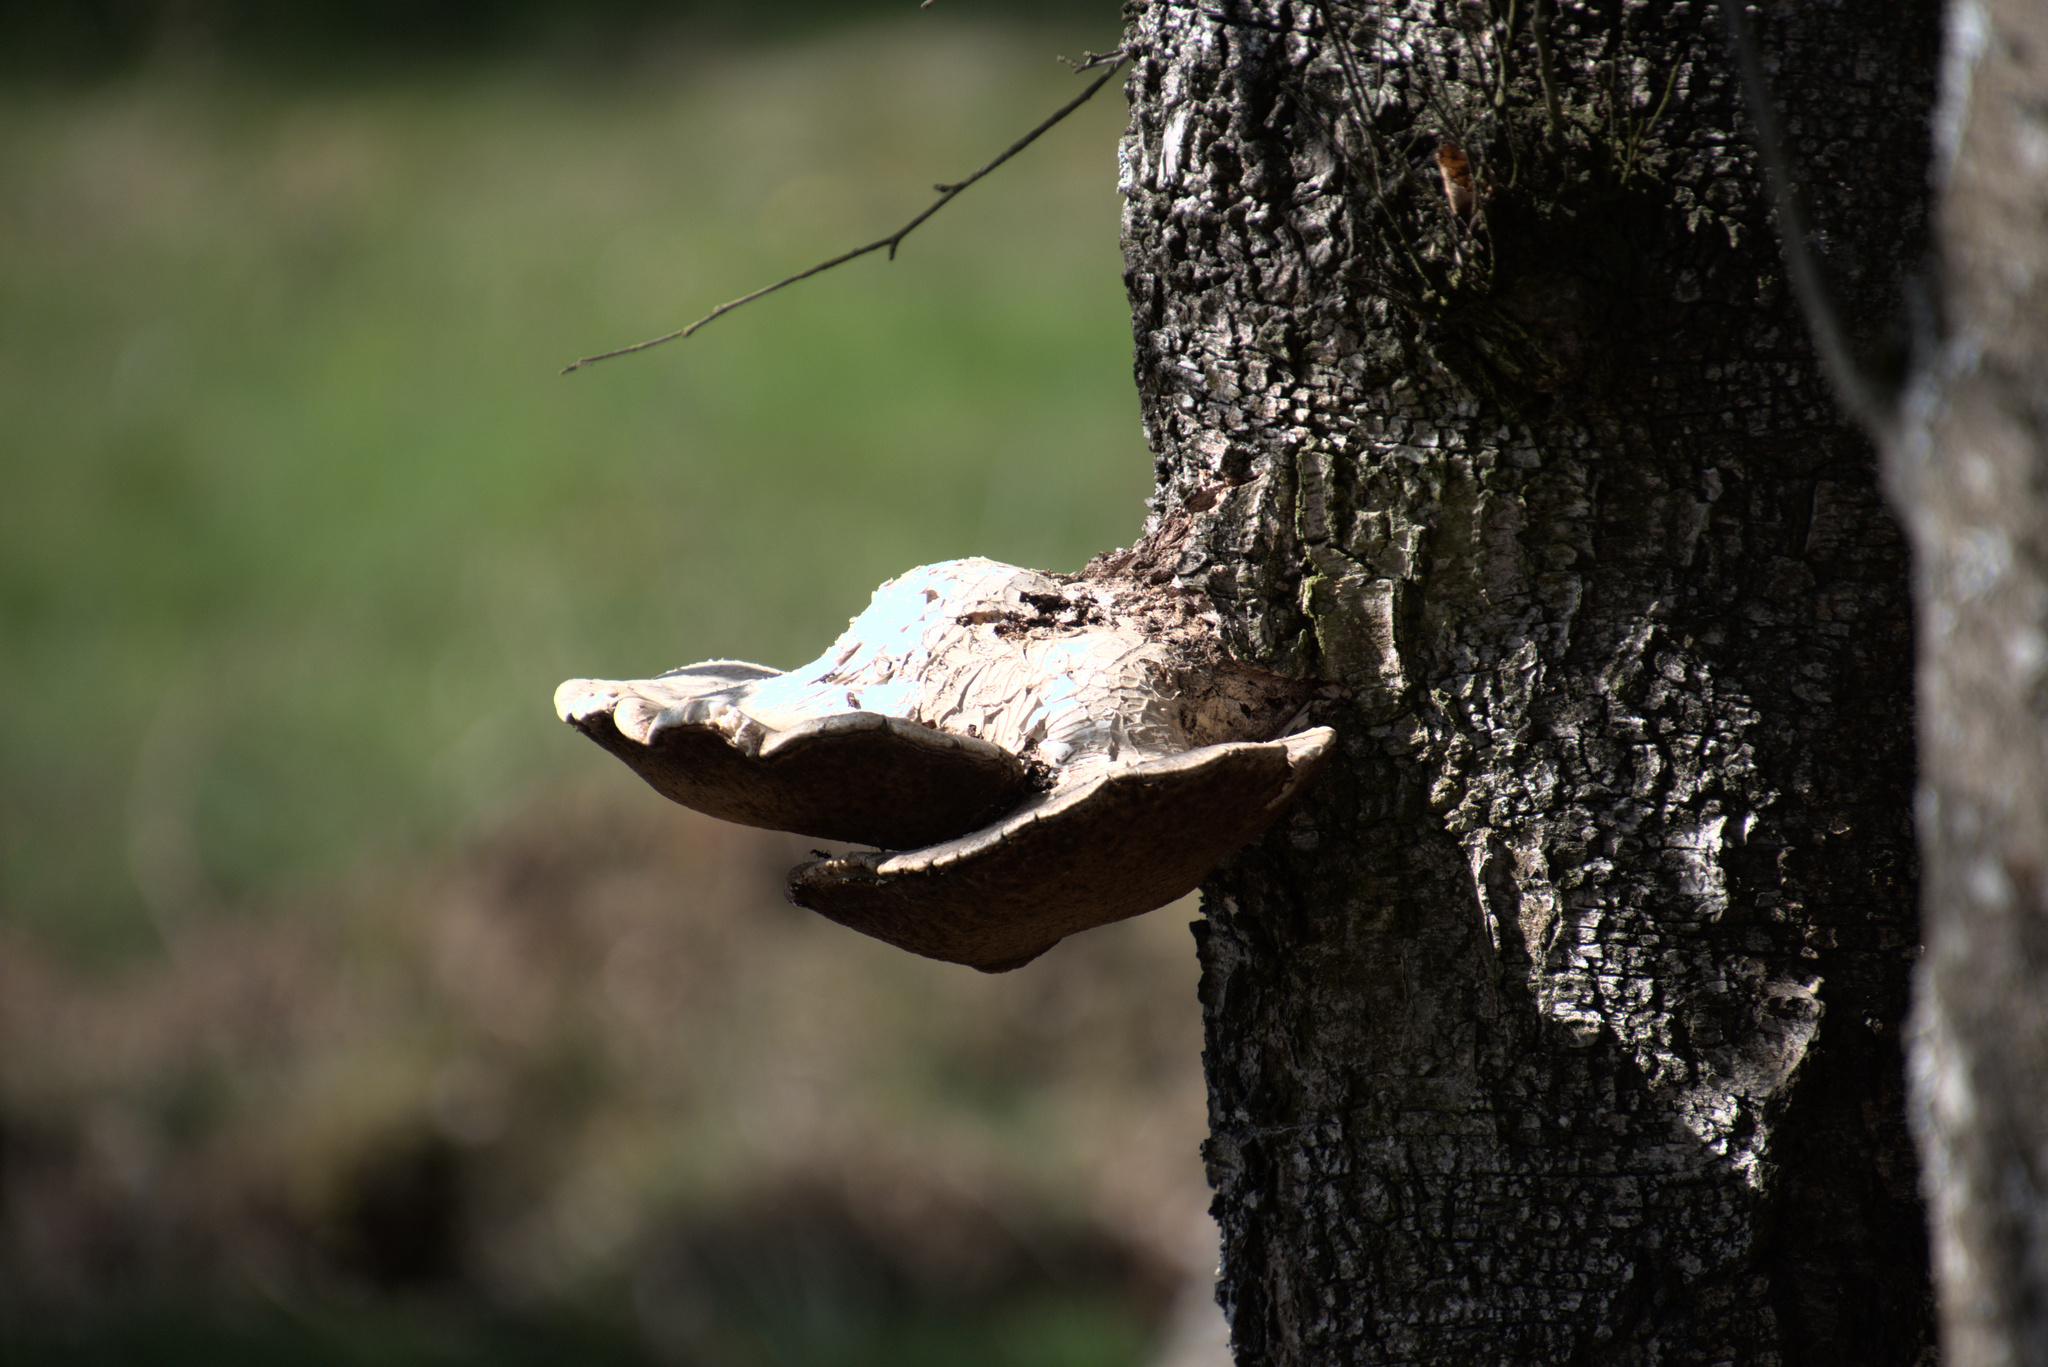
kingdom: Fungi
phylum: Basidiomycota
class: Agaricomycetes
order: Polyporales
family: Fomitopsidaceae
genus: Fomitopsis
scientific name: Fomitopsis betulina
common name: Birch polypore
